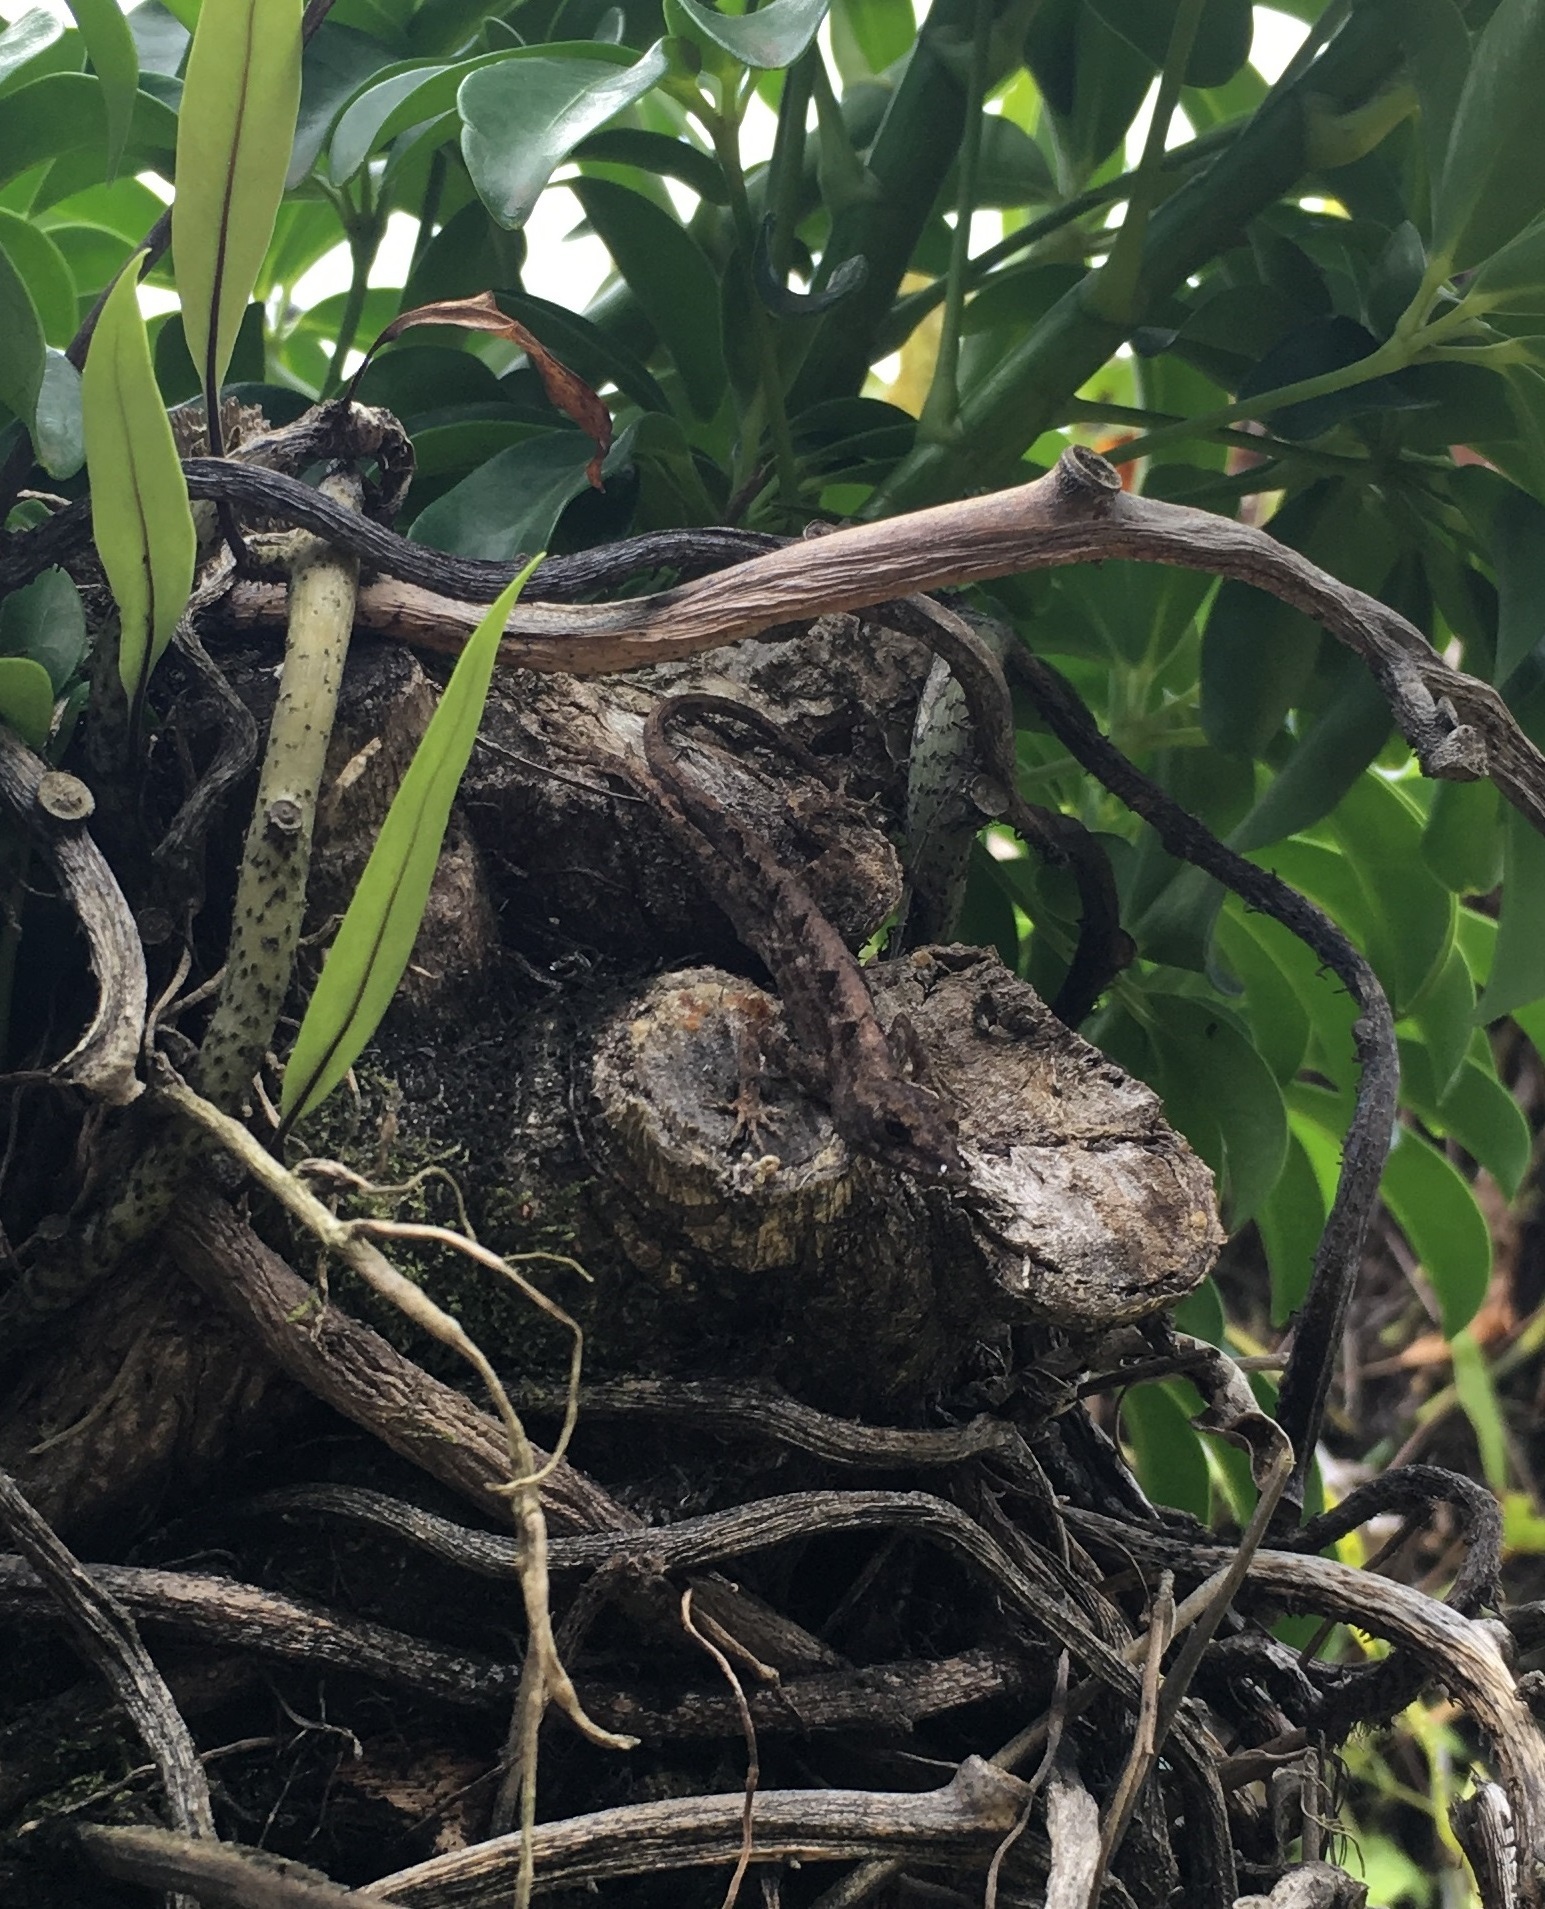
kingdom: Animalia
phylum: Chordata
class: Squamata
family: Dactyloidae
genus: Anolis
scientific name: Anolis sagrei
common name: Brown anole
